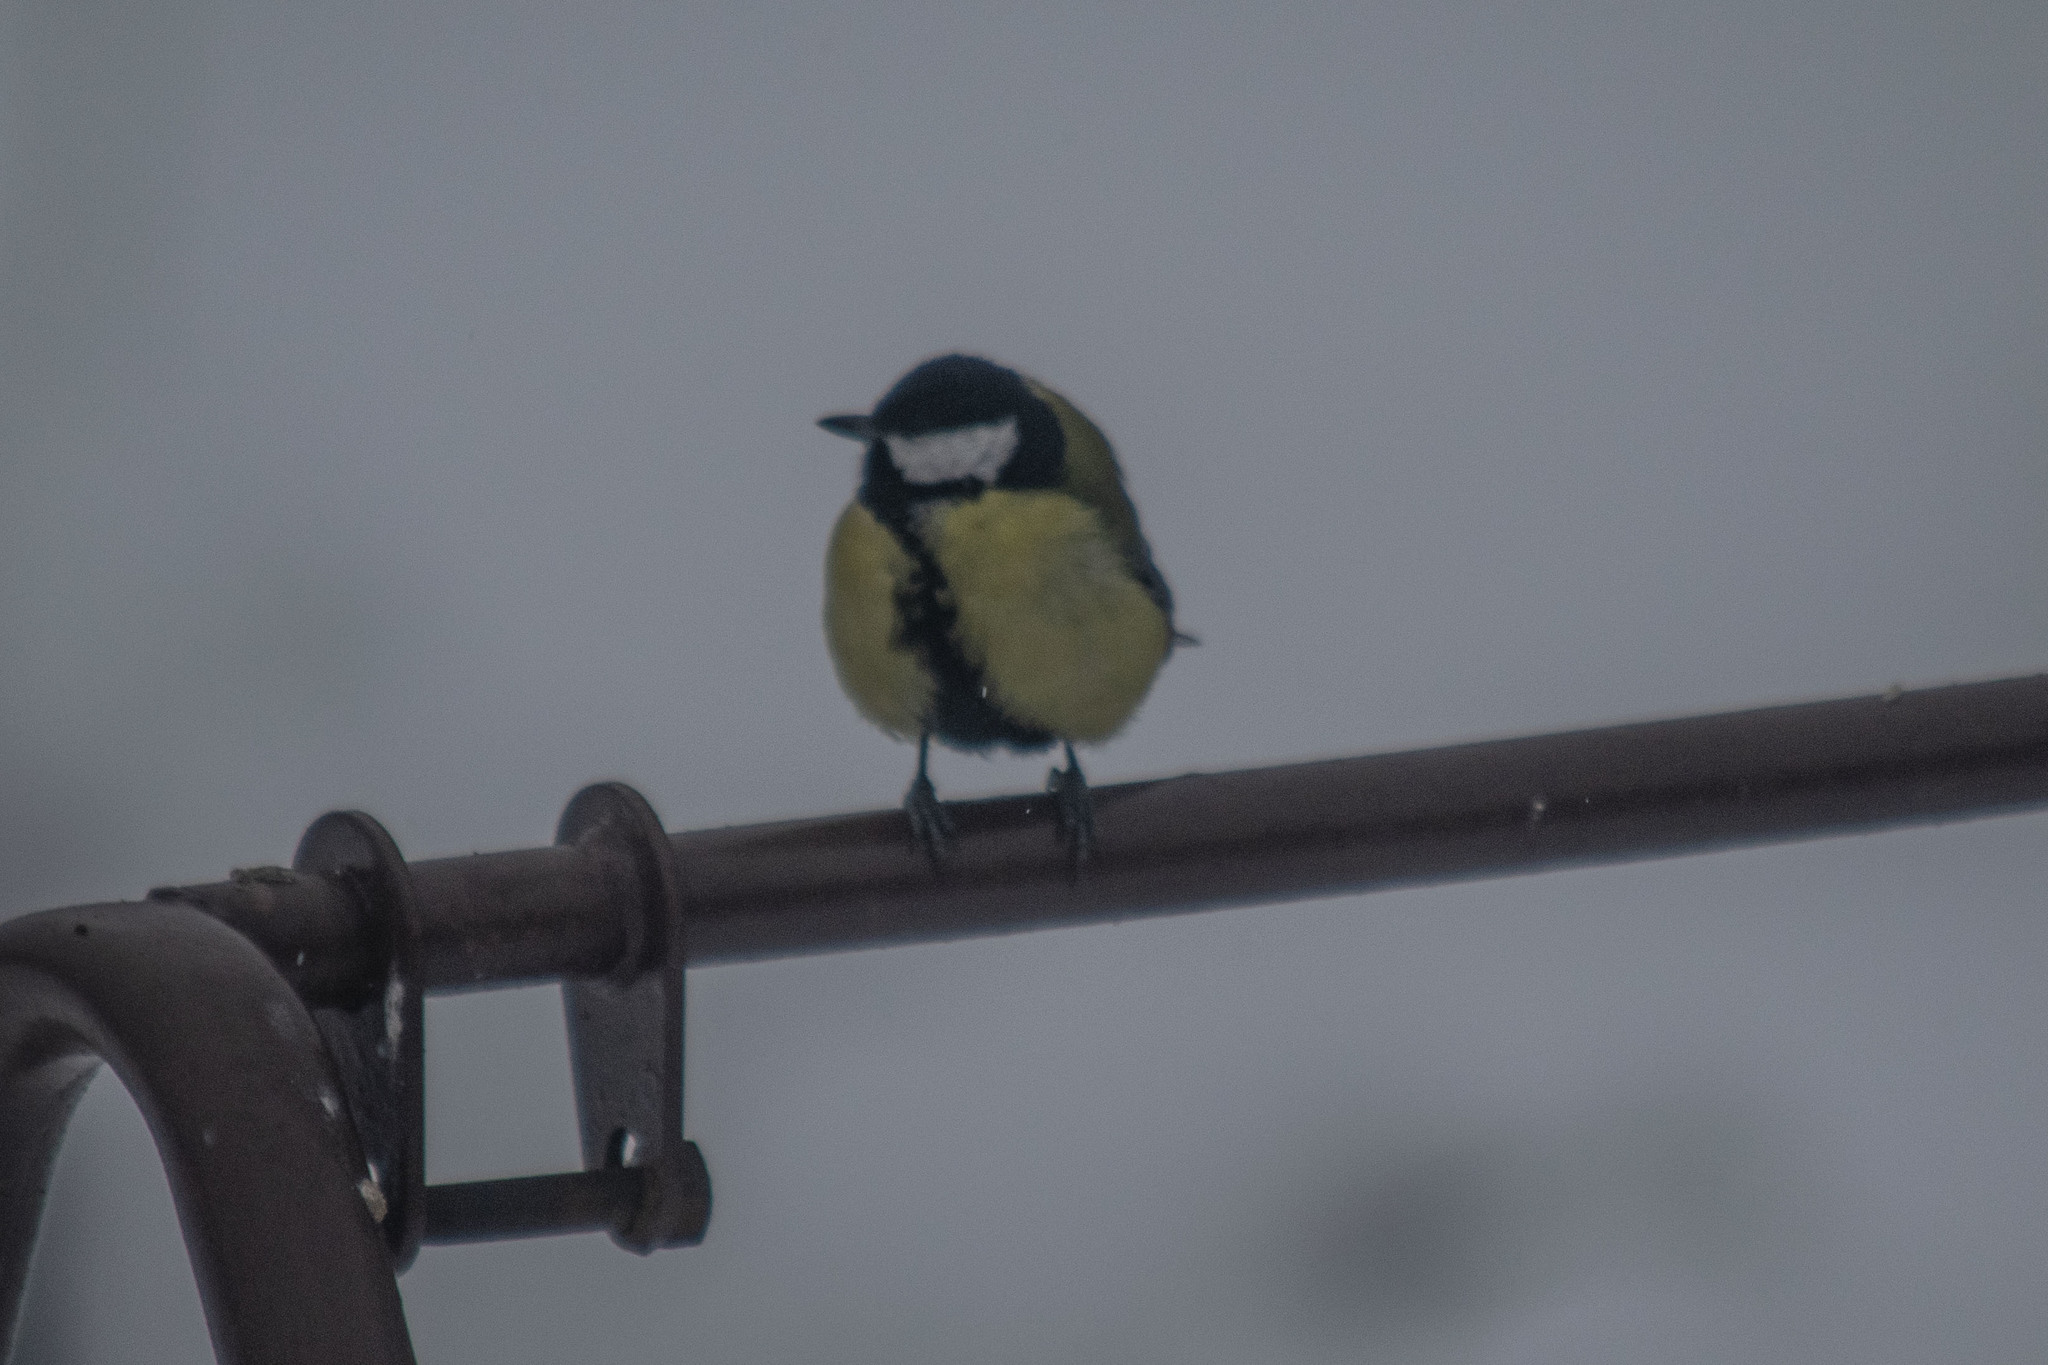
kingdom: Animalia
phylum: Chordata
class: Aves
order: Passeriformes
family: Paridae
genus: Parus
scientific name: Parus major
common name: Great tit
